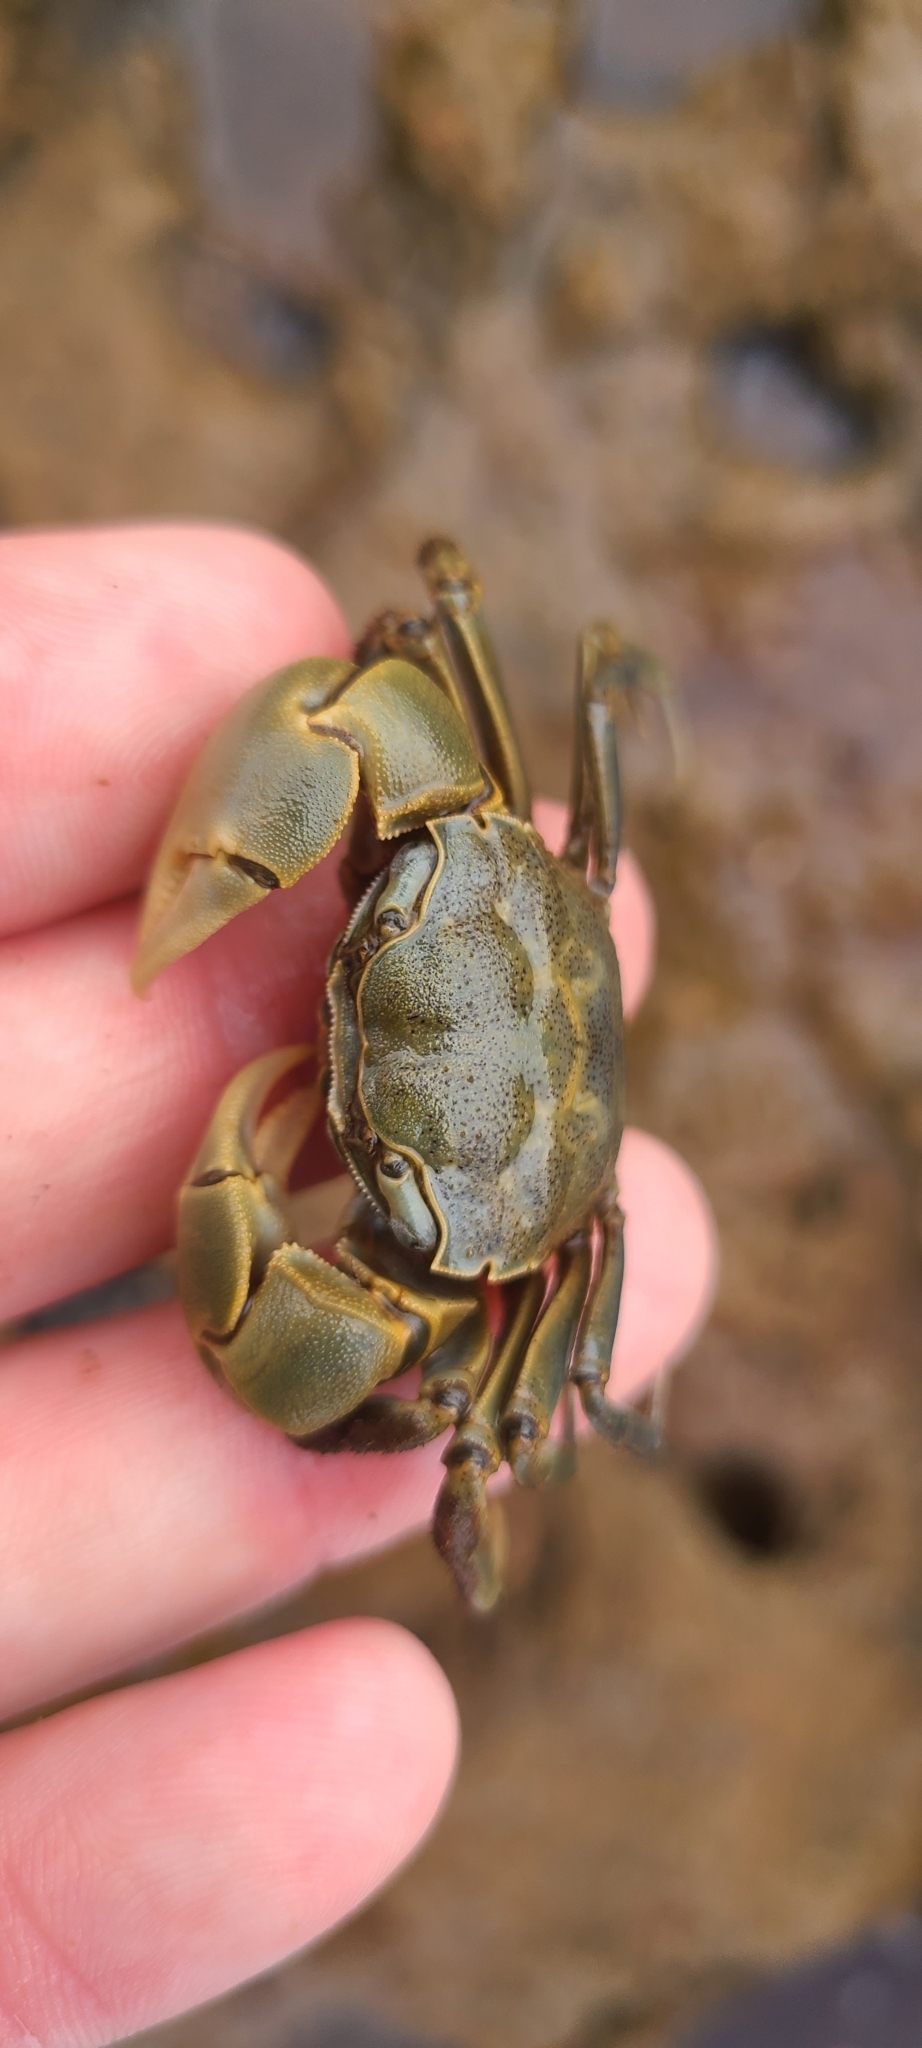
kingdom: Animalia
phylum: Arthropoda
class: Malacostraca
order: Decapoda
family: Varunidae
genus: Austrohelice
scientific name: Austrohelice crassa
